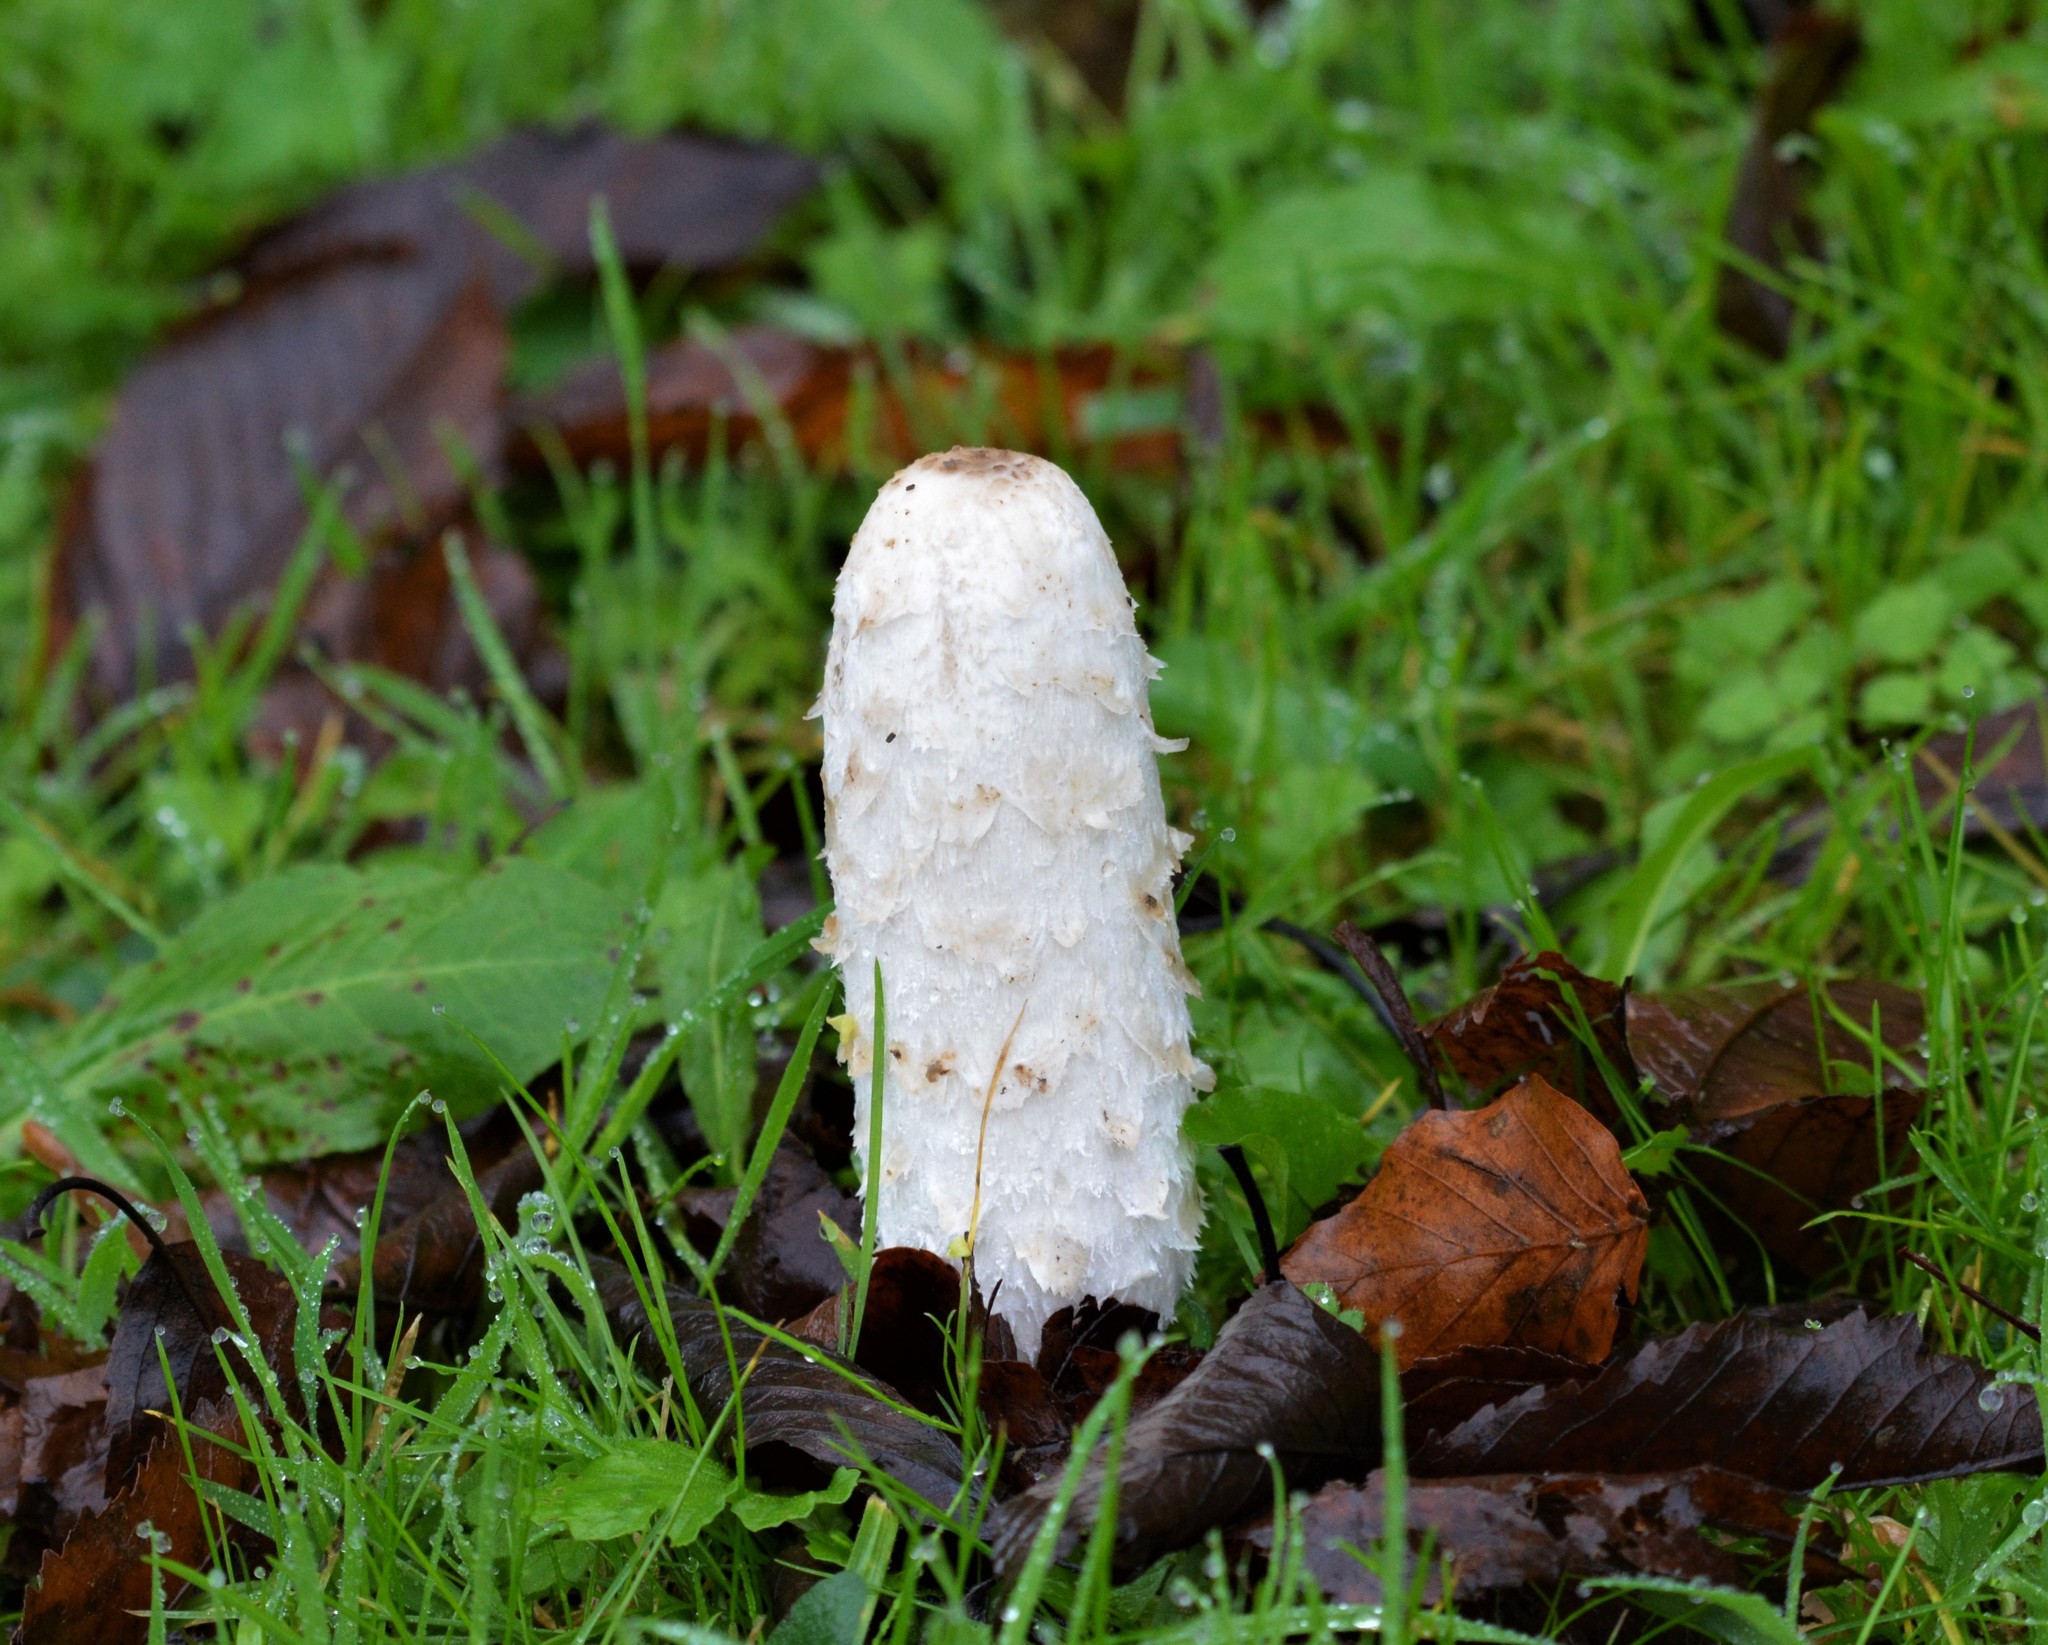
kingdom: Fungi
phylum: Basidiomycota
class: Agaricomycetes
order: Agaricales
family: Agaricaceae
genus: Coprinus
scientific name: Coprinus comatus
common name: Lawyer's wig
